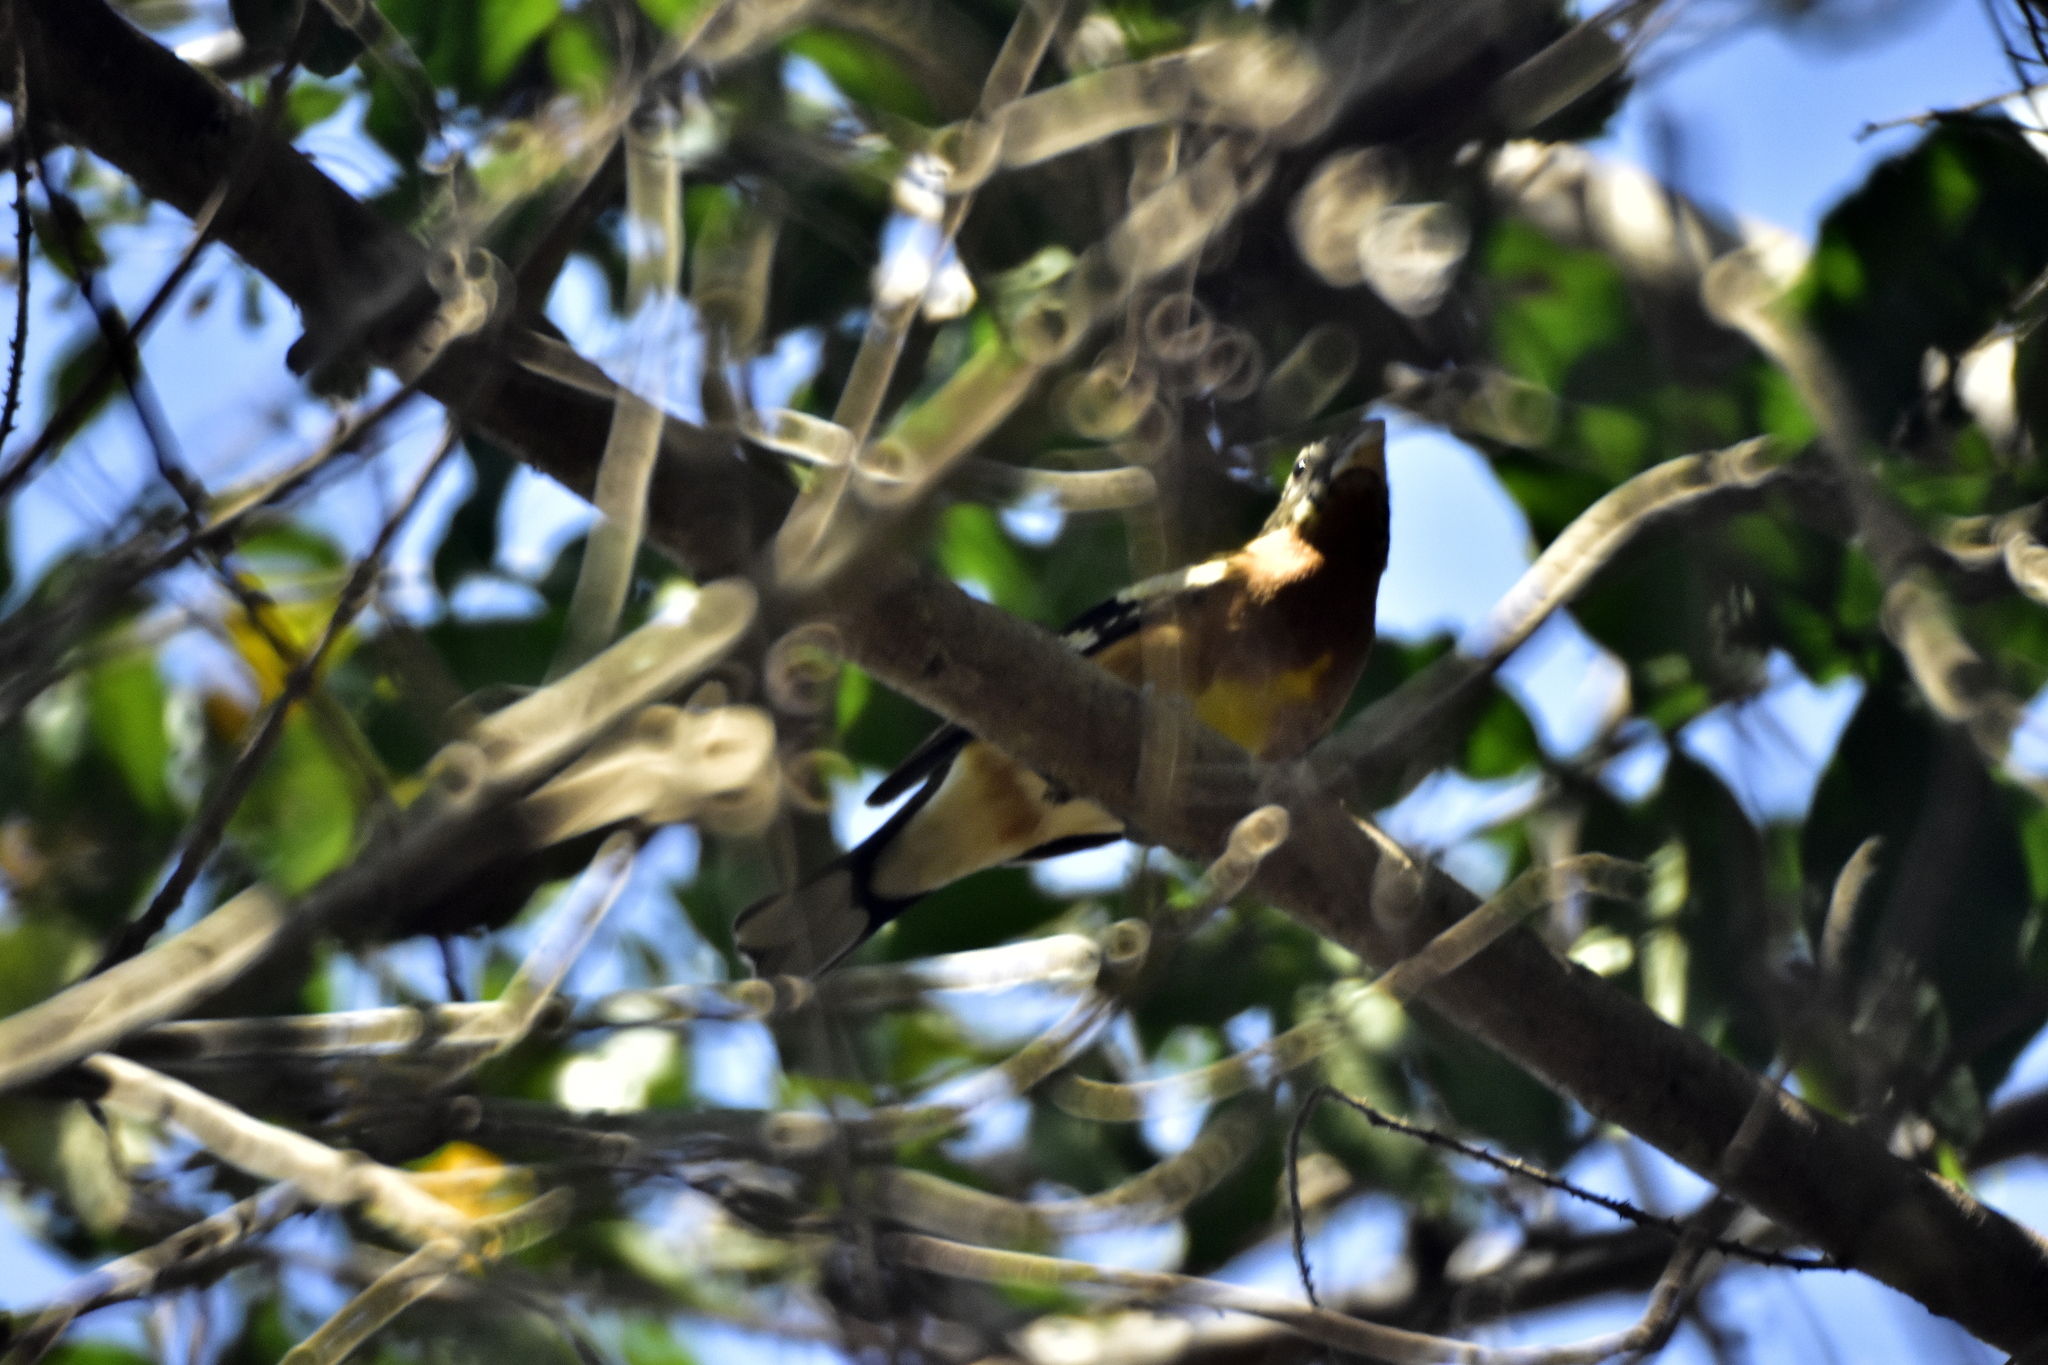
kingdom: Animalia
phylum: Chordata
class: Aves
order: Passeriformes
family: Cardinalidae
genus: Pheucticus
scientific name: Pheucticus melanocephalus
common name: Black-headed grosbeak
